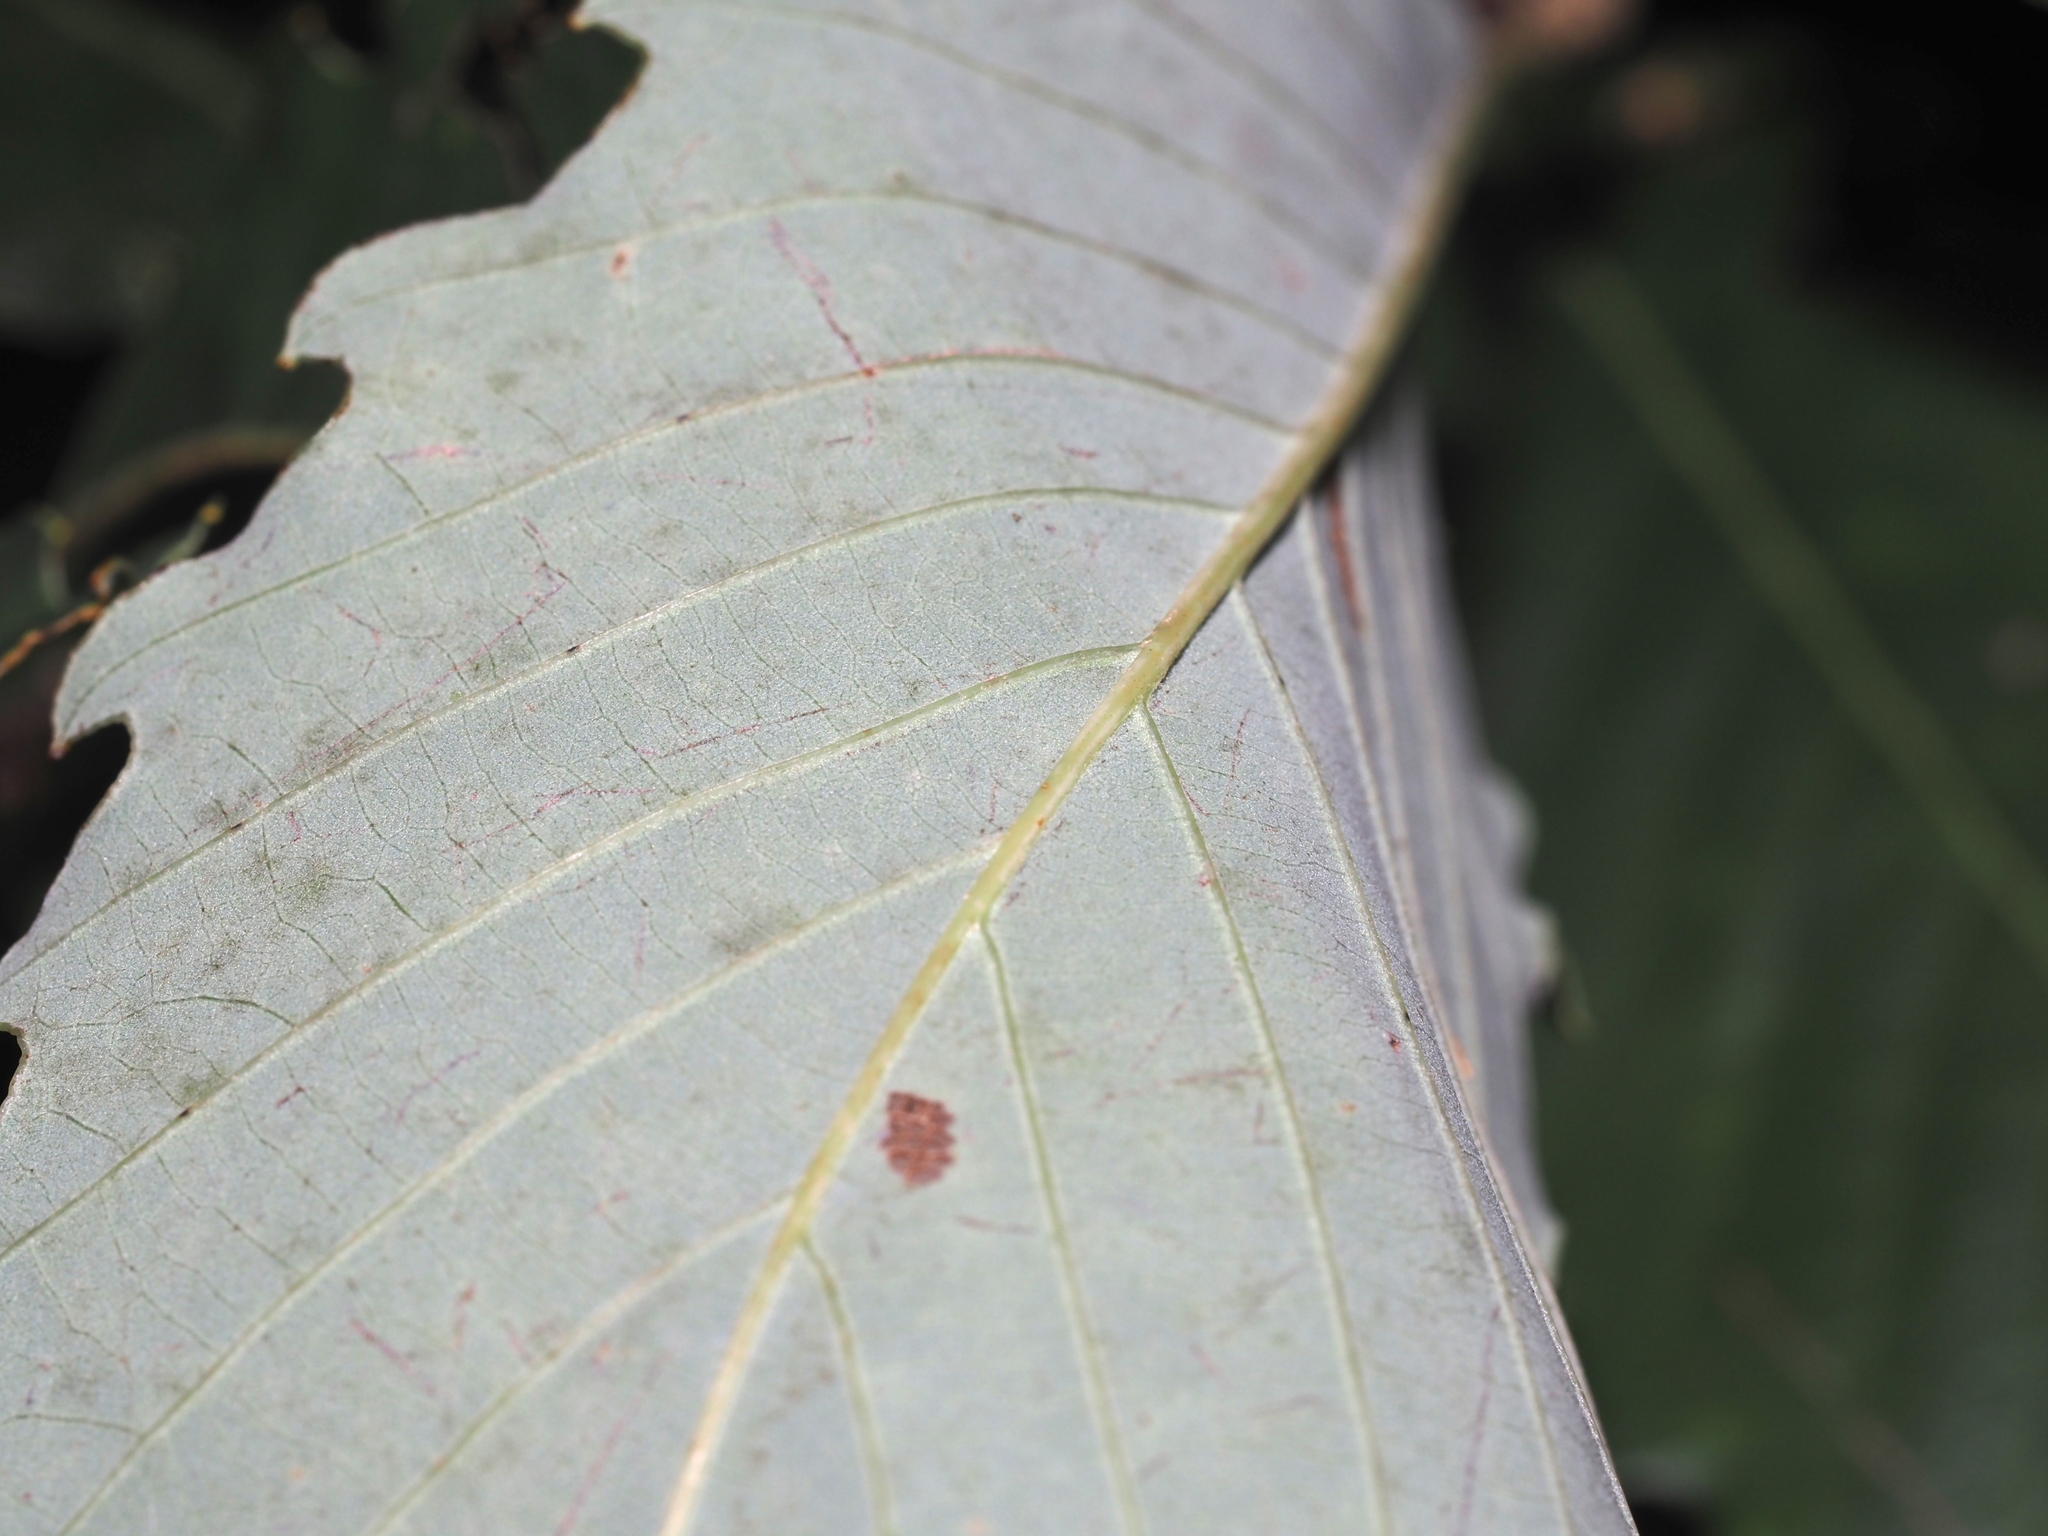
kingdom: Plantae
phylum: Tracheophyta
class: Magnoliopsida
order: Fagales
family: Fagaceae
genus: Quercus
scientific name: Quercus muehlenbergii
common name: Chinkapin oak
